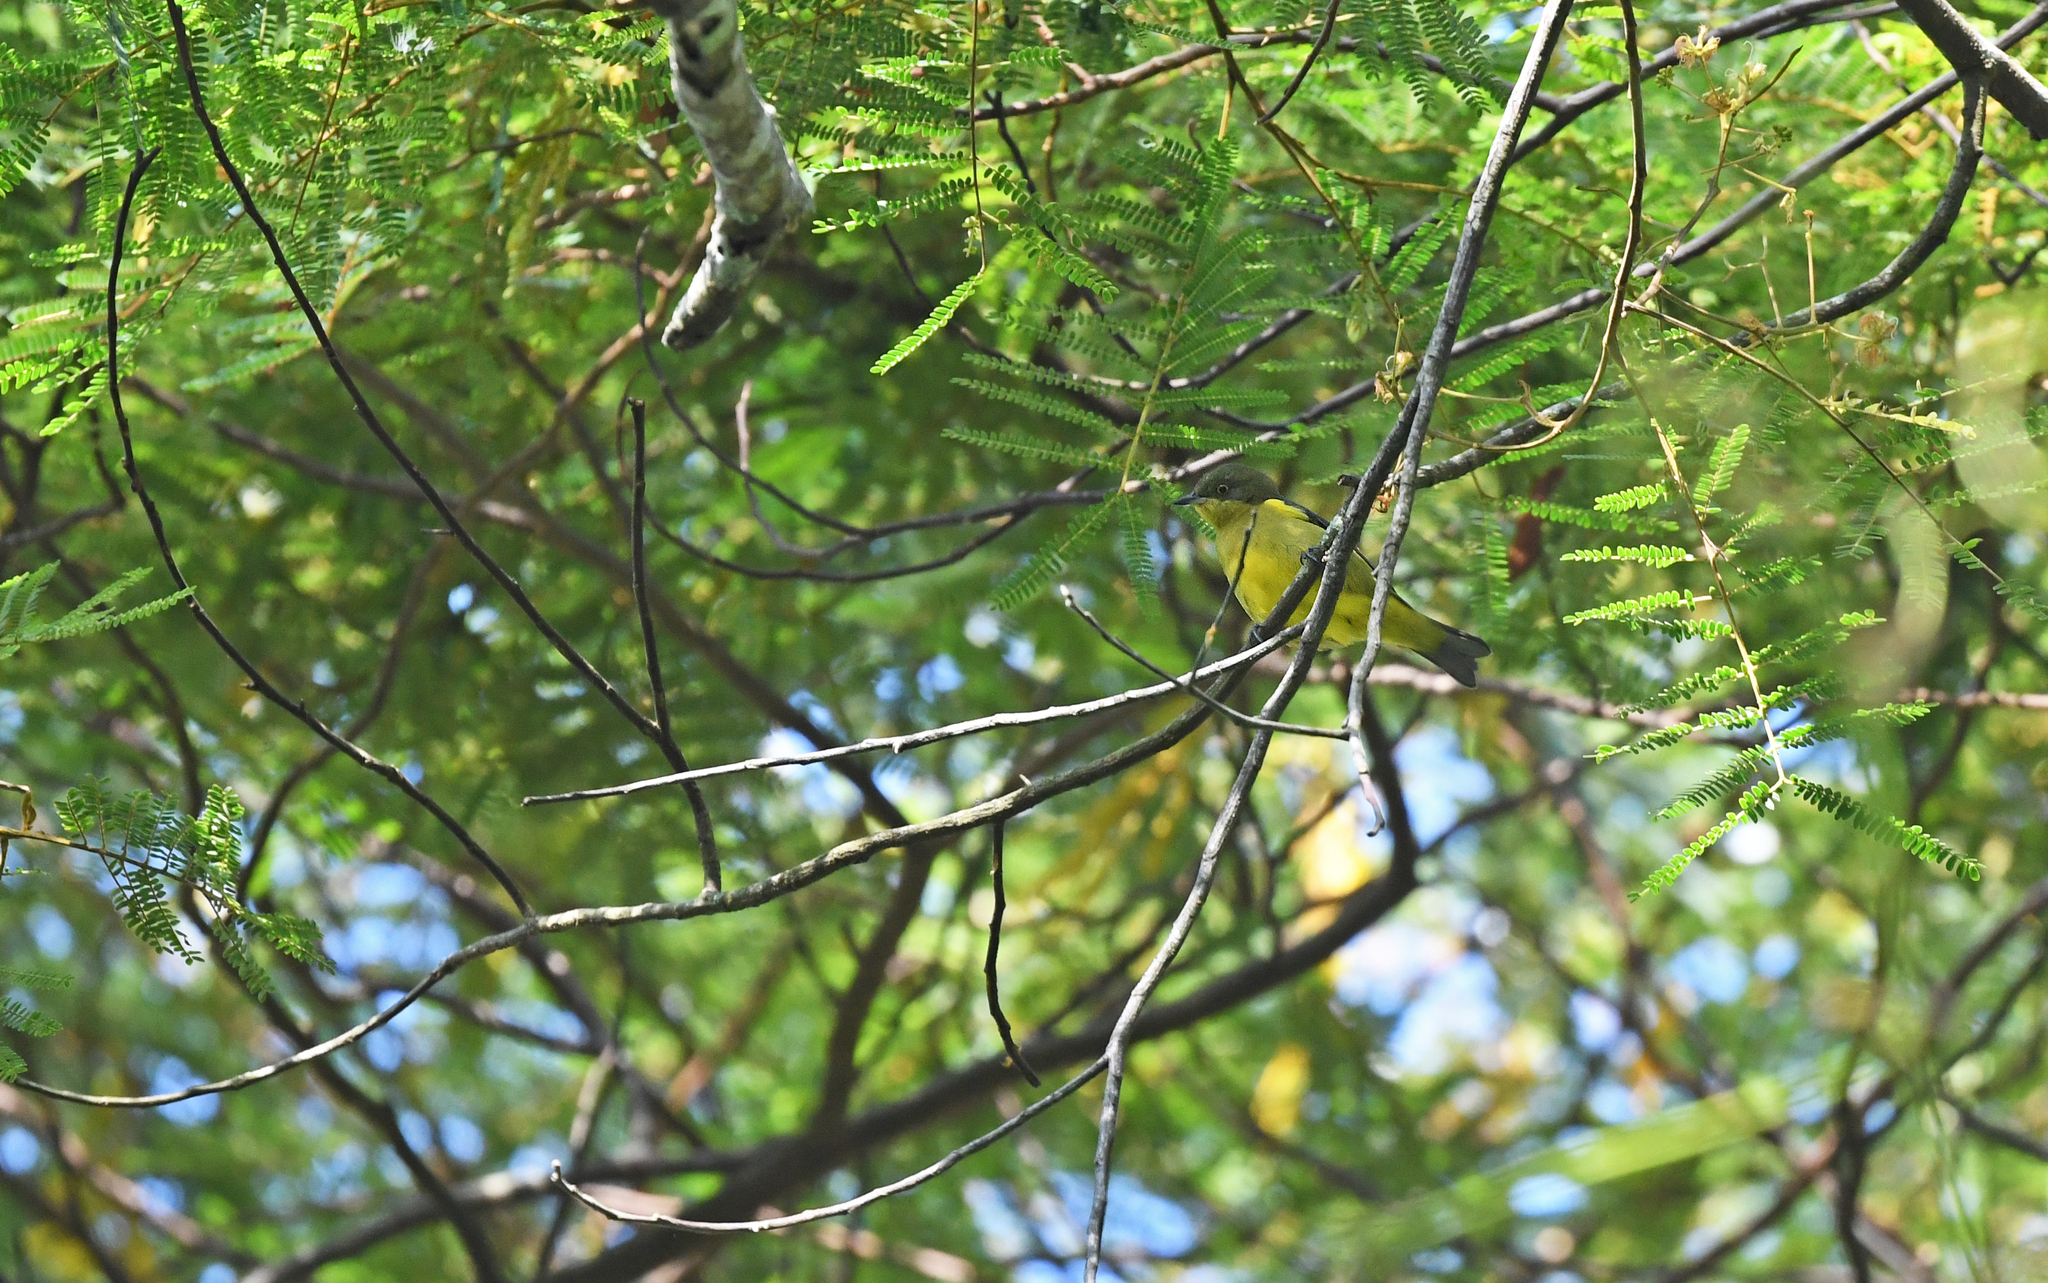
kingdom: Animalia
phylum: Chordata
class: Aves
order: Passeriformes
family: Thraupidae
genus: Dacnis
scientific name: Dacnis lineata
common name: Black-faced dacnis
